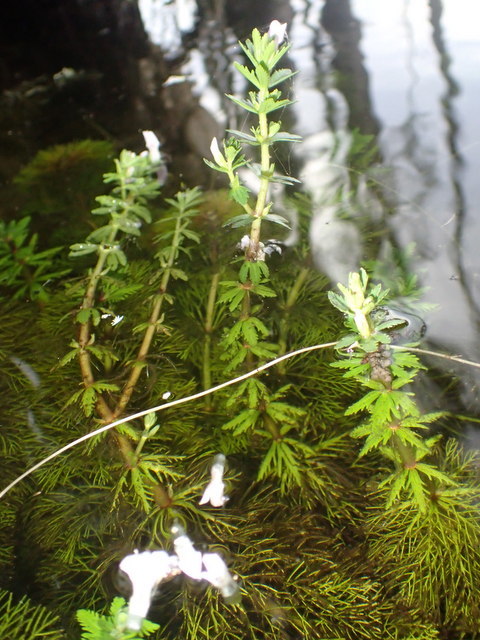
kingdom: Plantae
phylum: Tracheophyta
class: Magnoliopsida
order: Lamiales
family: Plantaginaceae
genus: Limnophila
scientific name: Limnophila sessiliflora
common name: Asian marshweed
